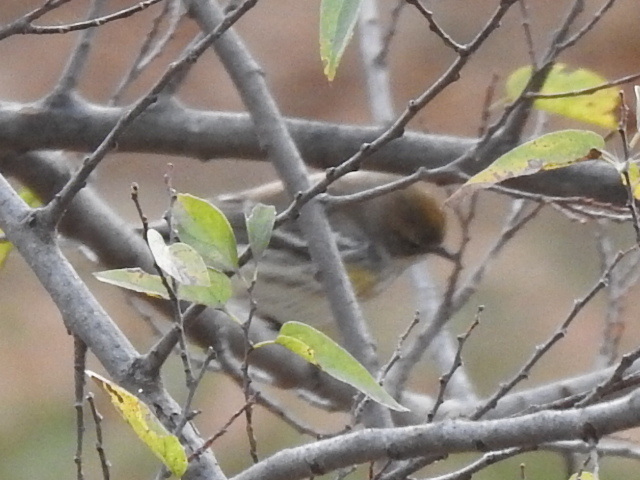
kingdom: Animalia
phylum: Chordata
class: Aves
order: Passeriformes
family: Parulidae
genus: Setophaga
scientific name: Setophaga coronata
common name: Myrtle warbler
